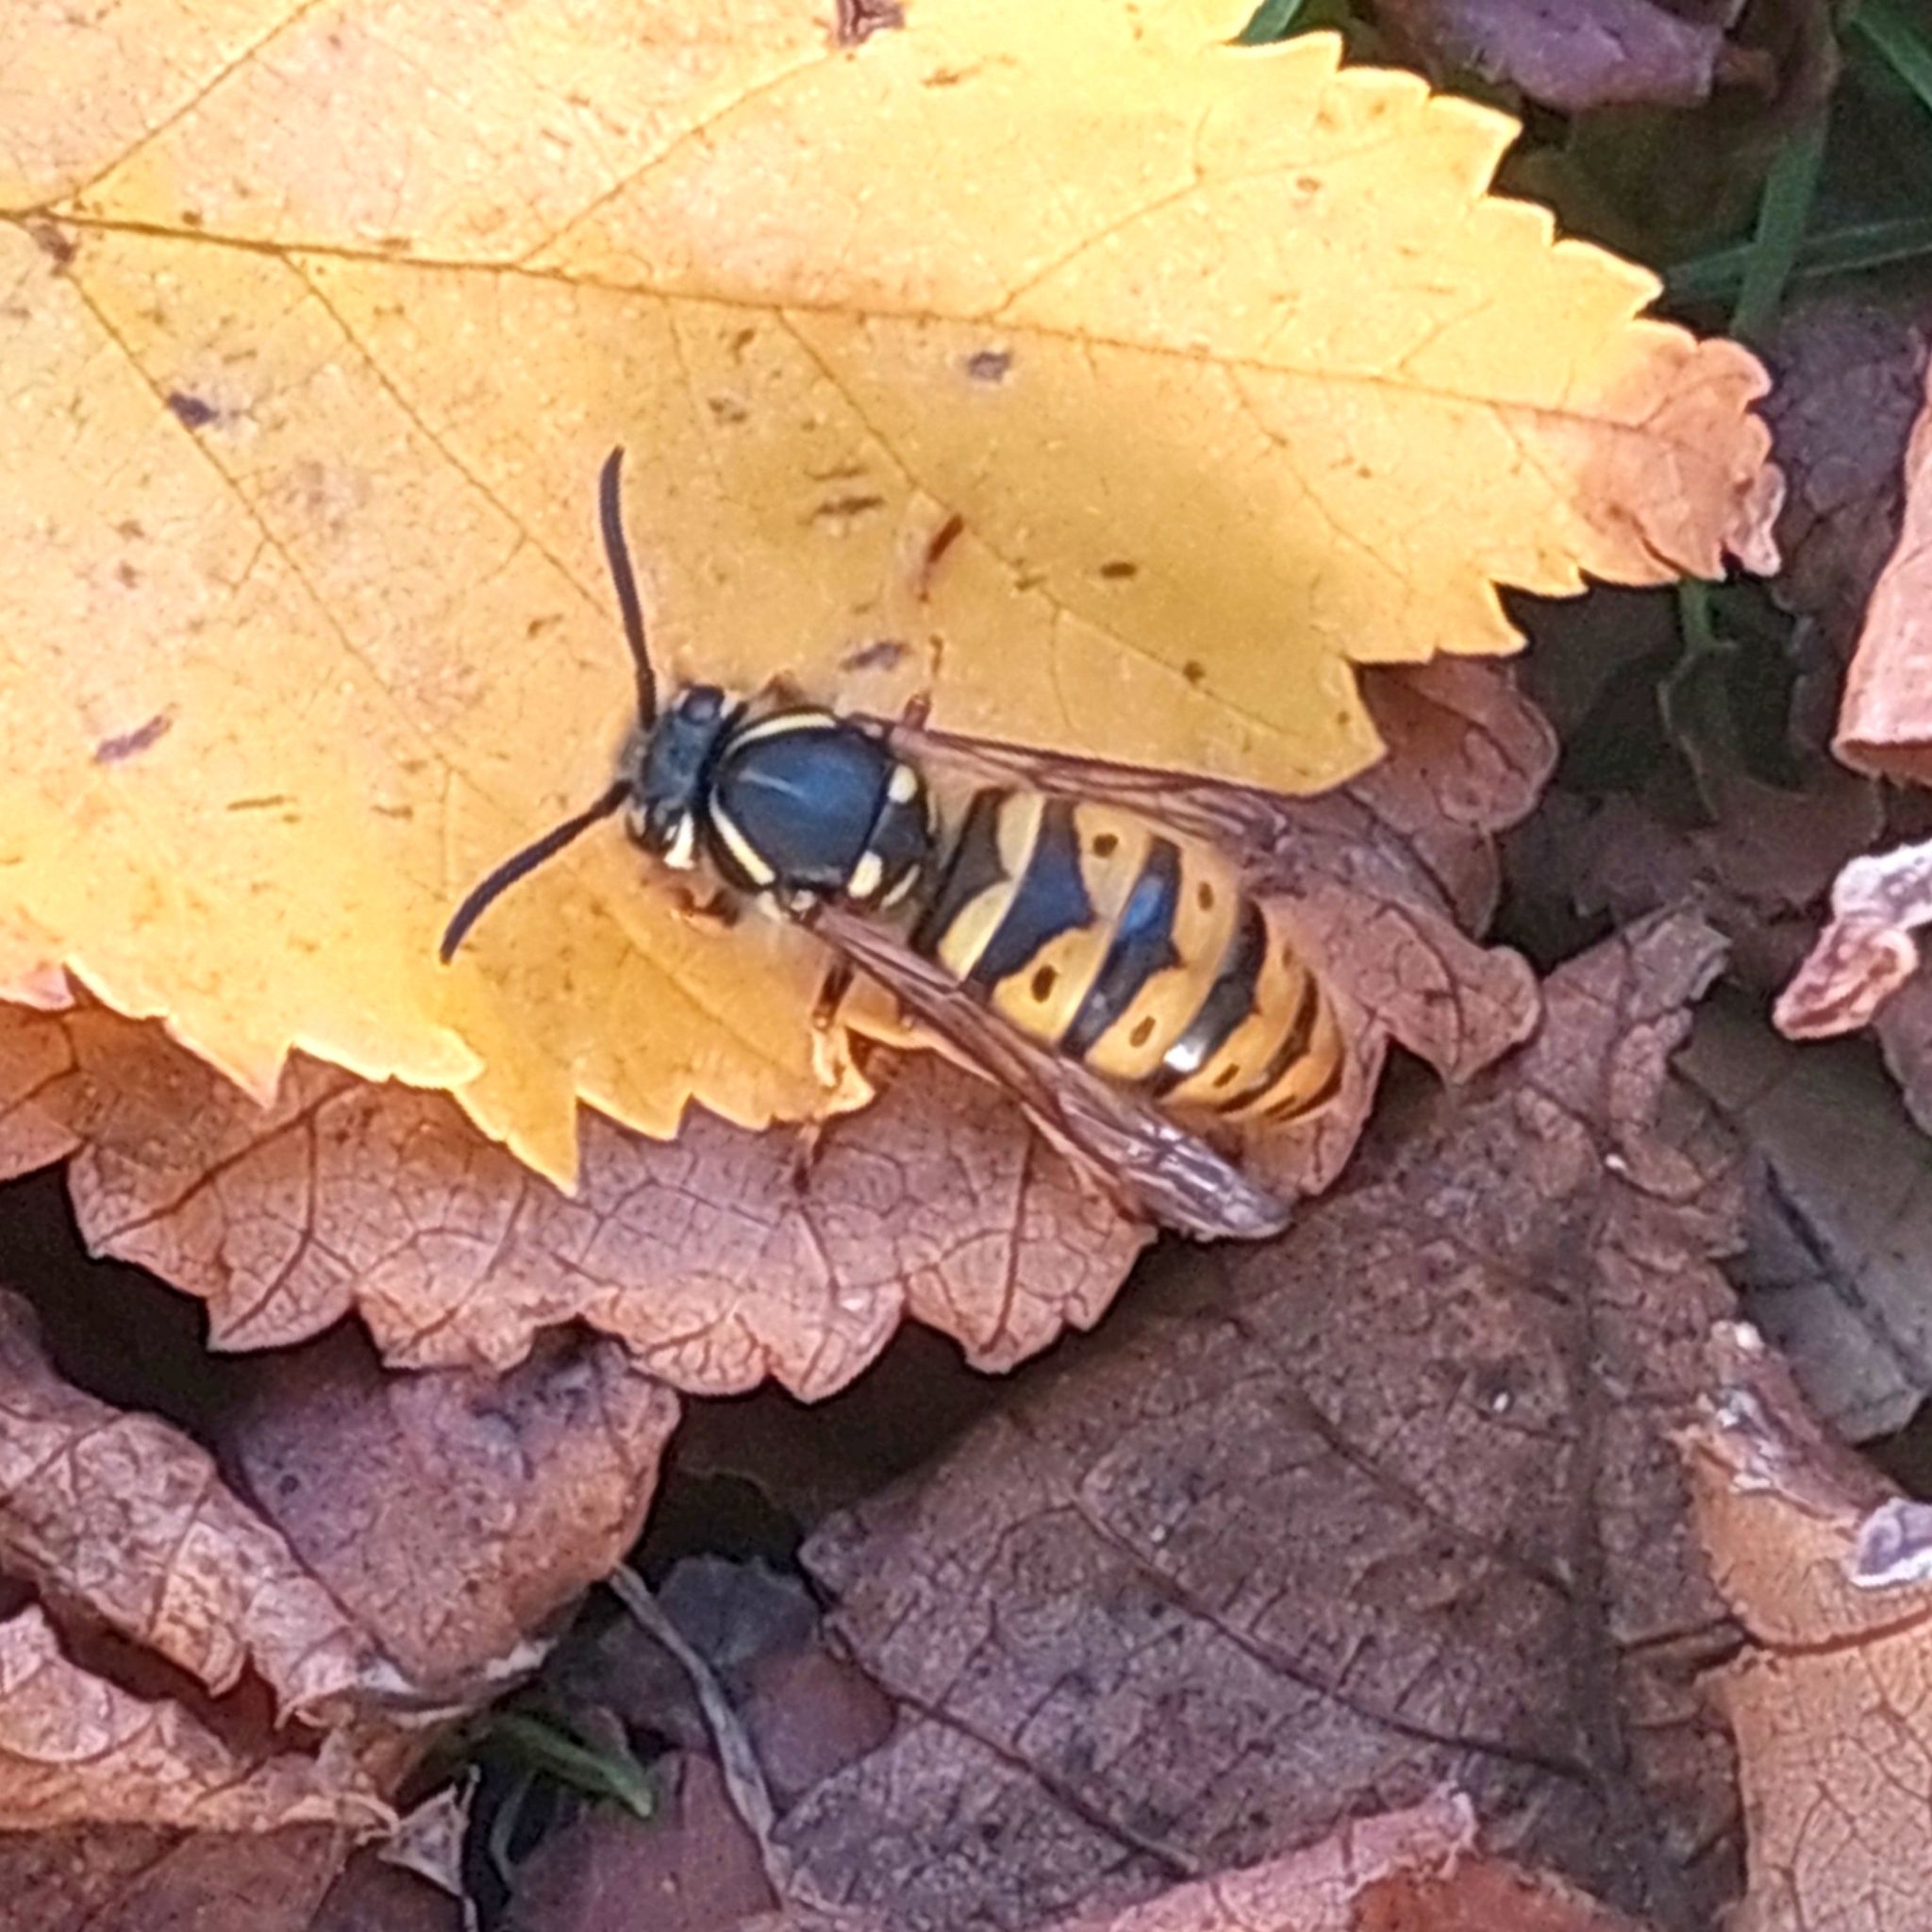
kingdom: Animalia
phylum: Arthropoda
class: Insecta
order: Hymenoptera
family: Vespidae
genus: Vespula
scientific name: Vespula vulgaris
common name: Common wasp
